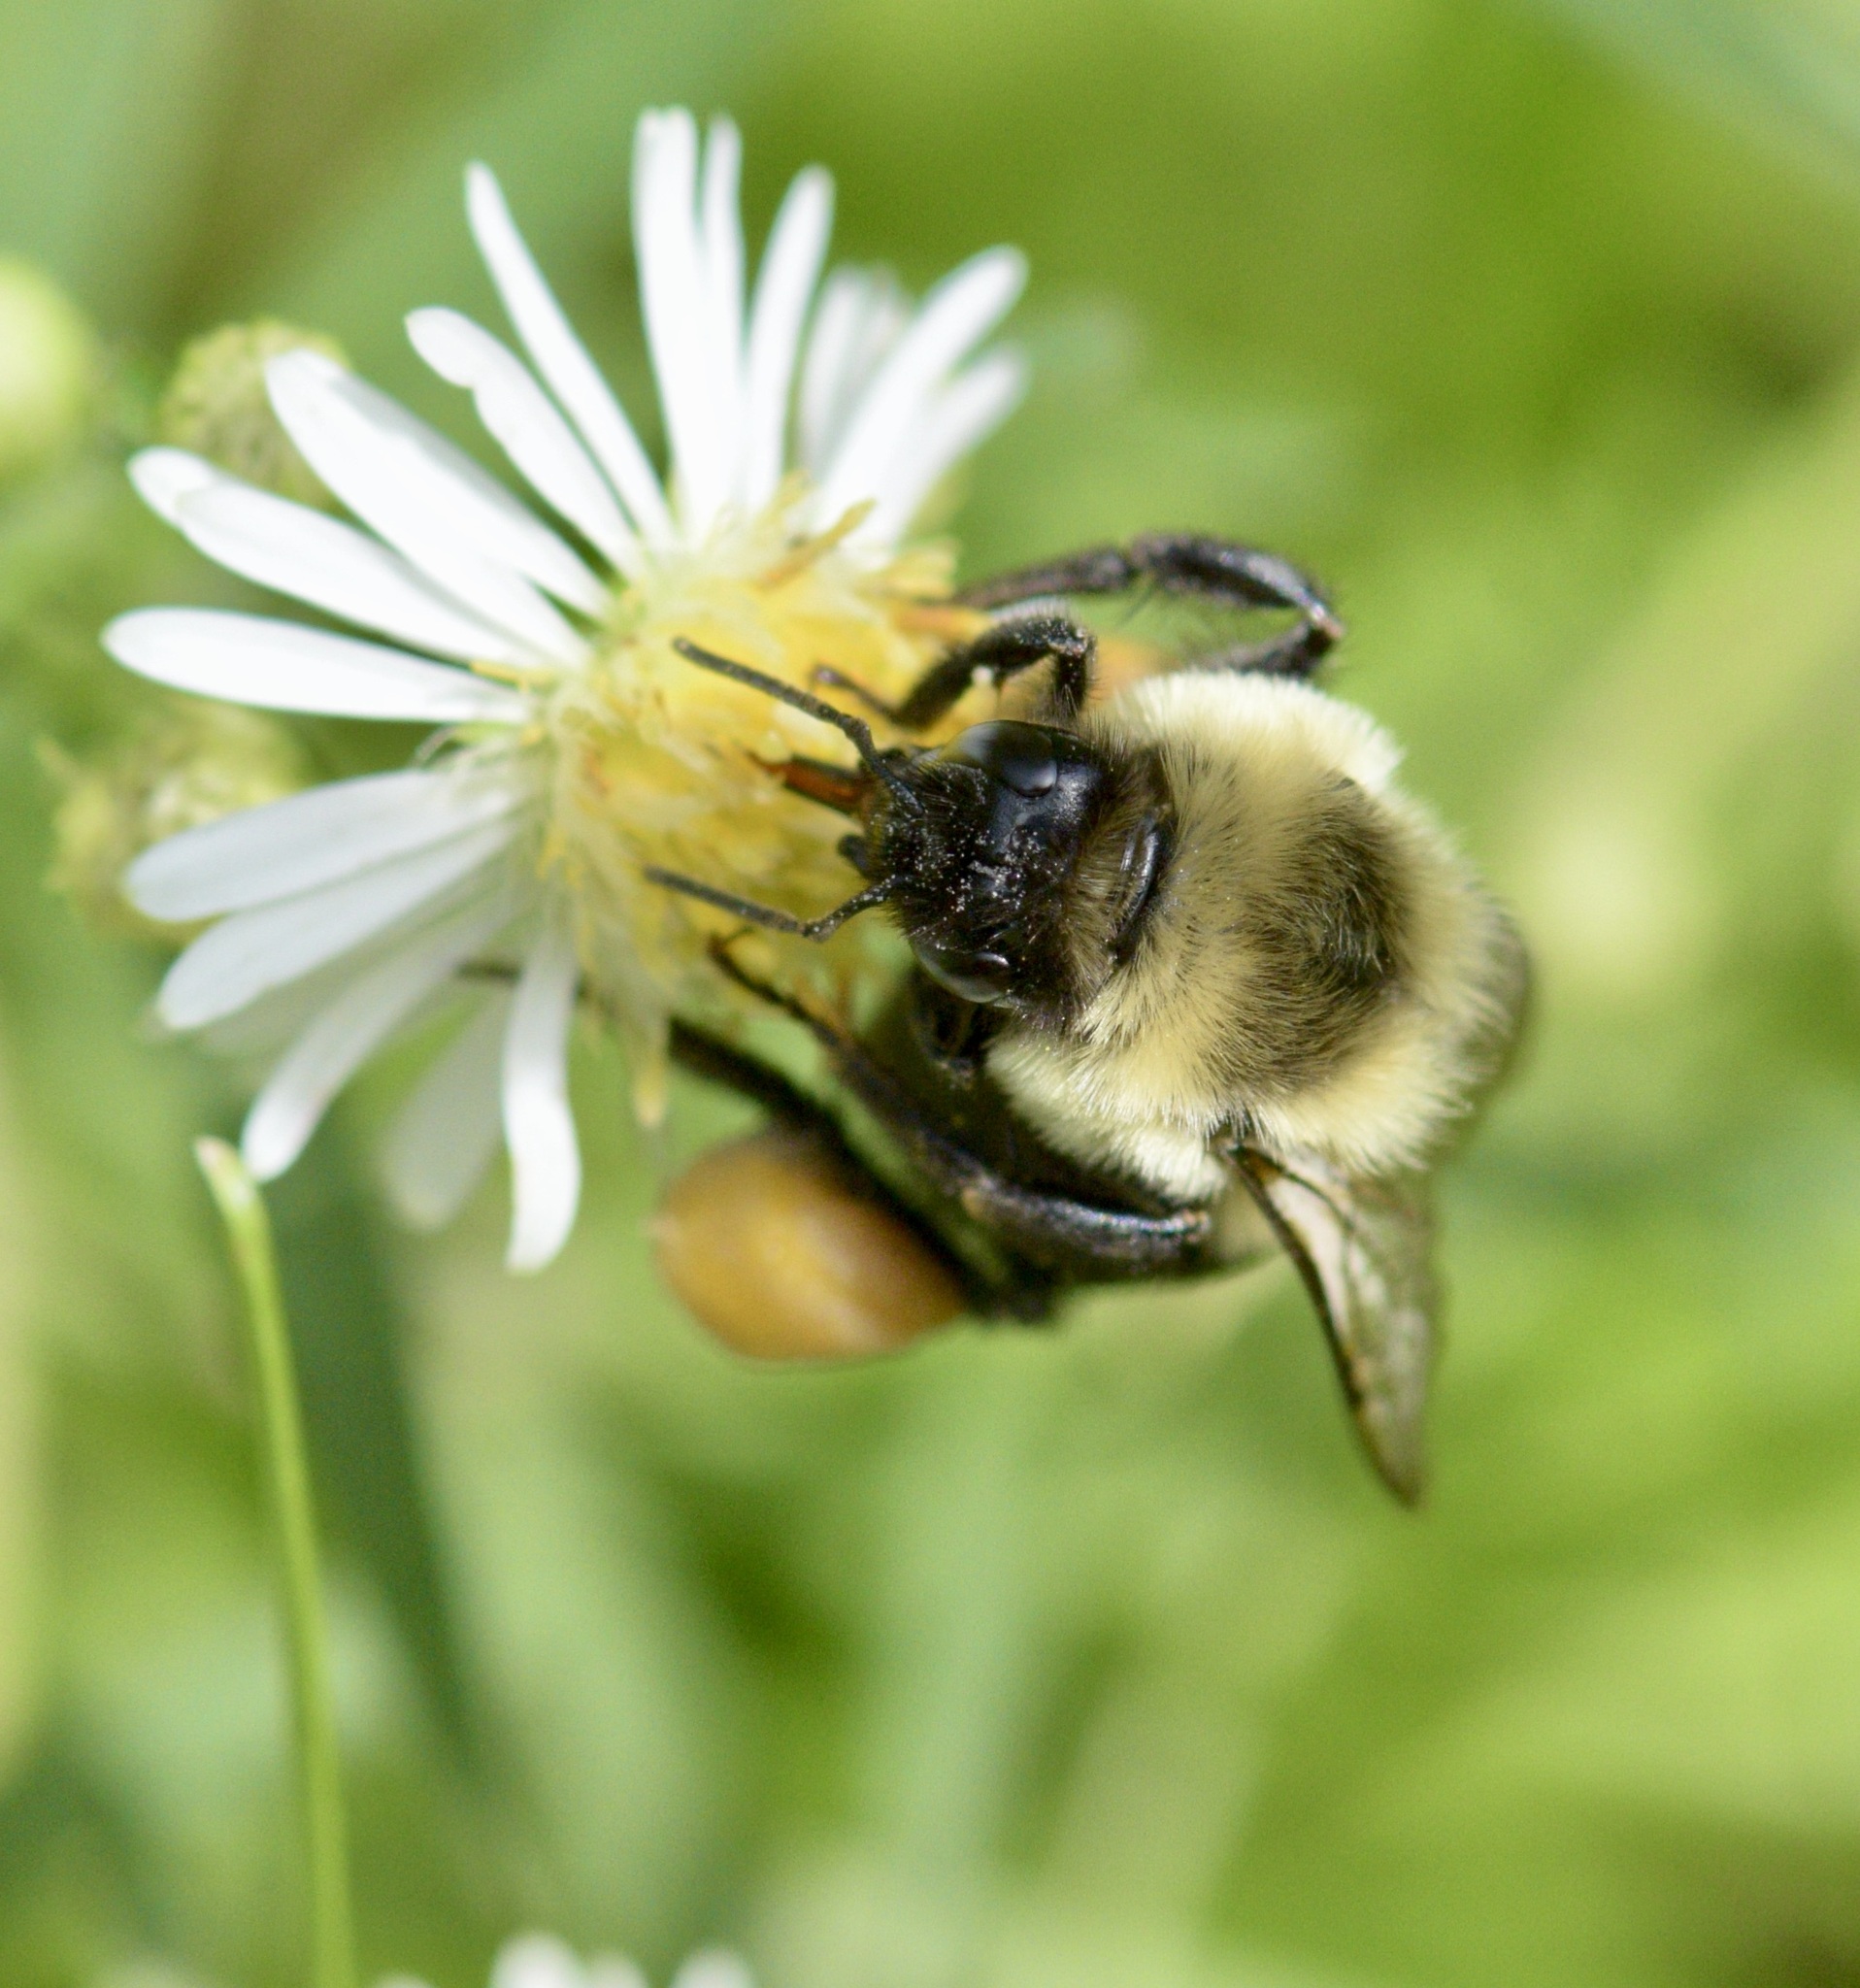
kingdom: Animalia
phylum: Arthropoda
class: Insecta
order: Hymenoptera
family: Apidae
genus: Bombus
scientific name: Bombus impatiens
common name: Common eastern bumble bee
